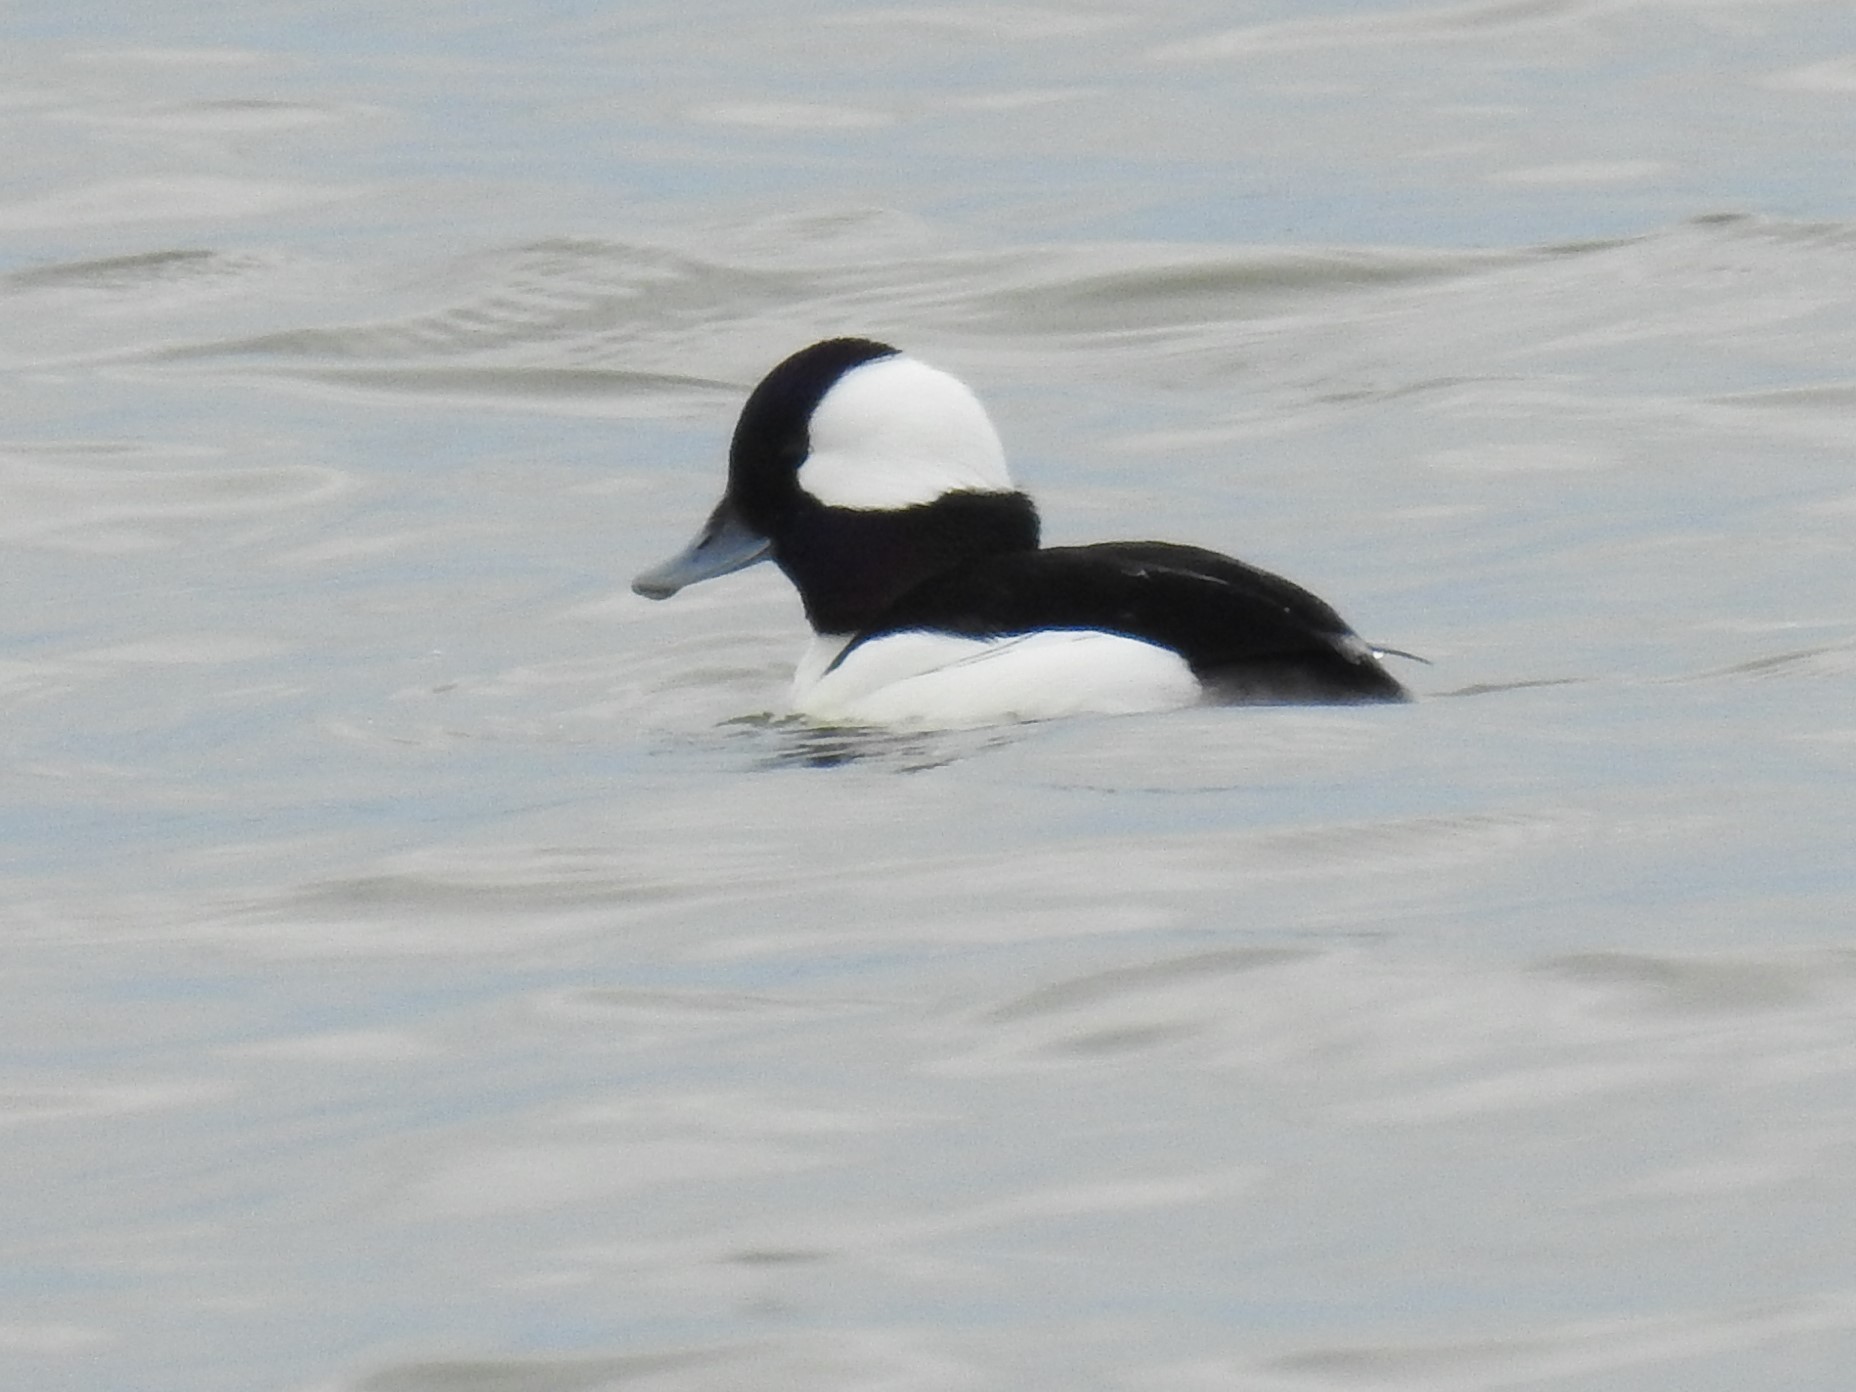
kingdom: Animalia
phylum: Chordata
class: Aves
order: Anseriformes
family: Anatidae
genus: Bucephala
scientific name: Bucephala albeola
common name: Bufflehead
